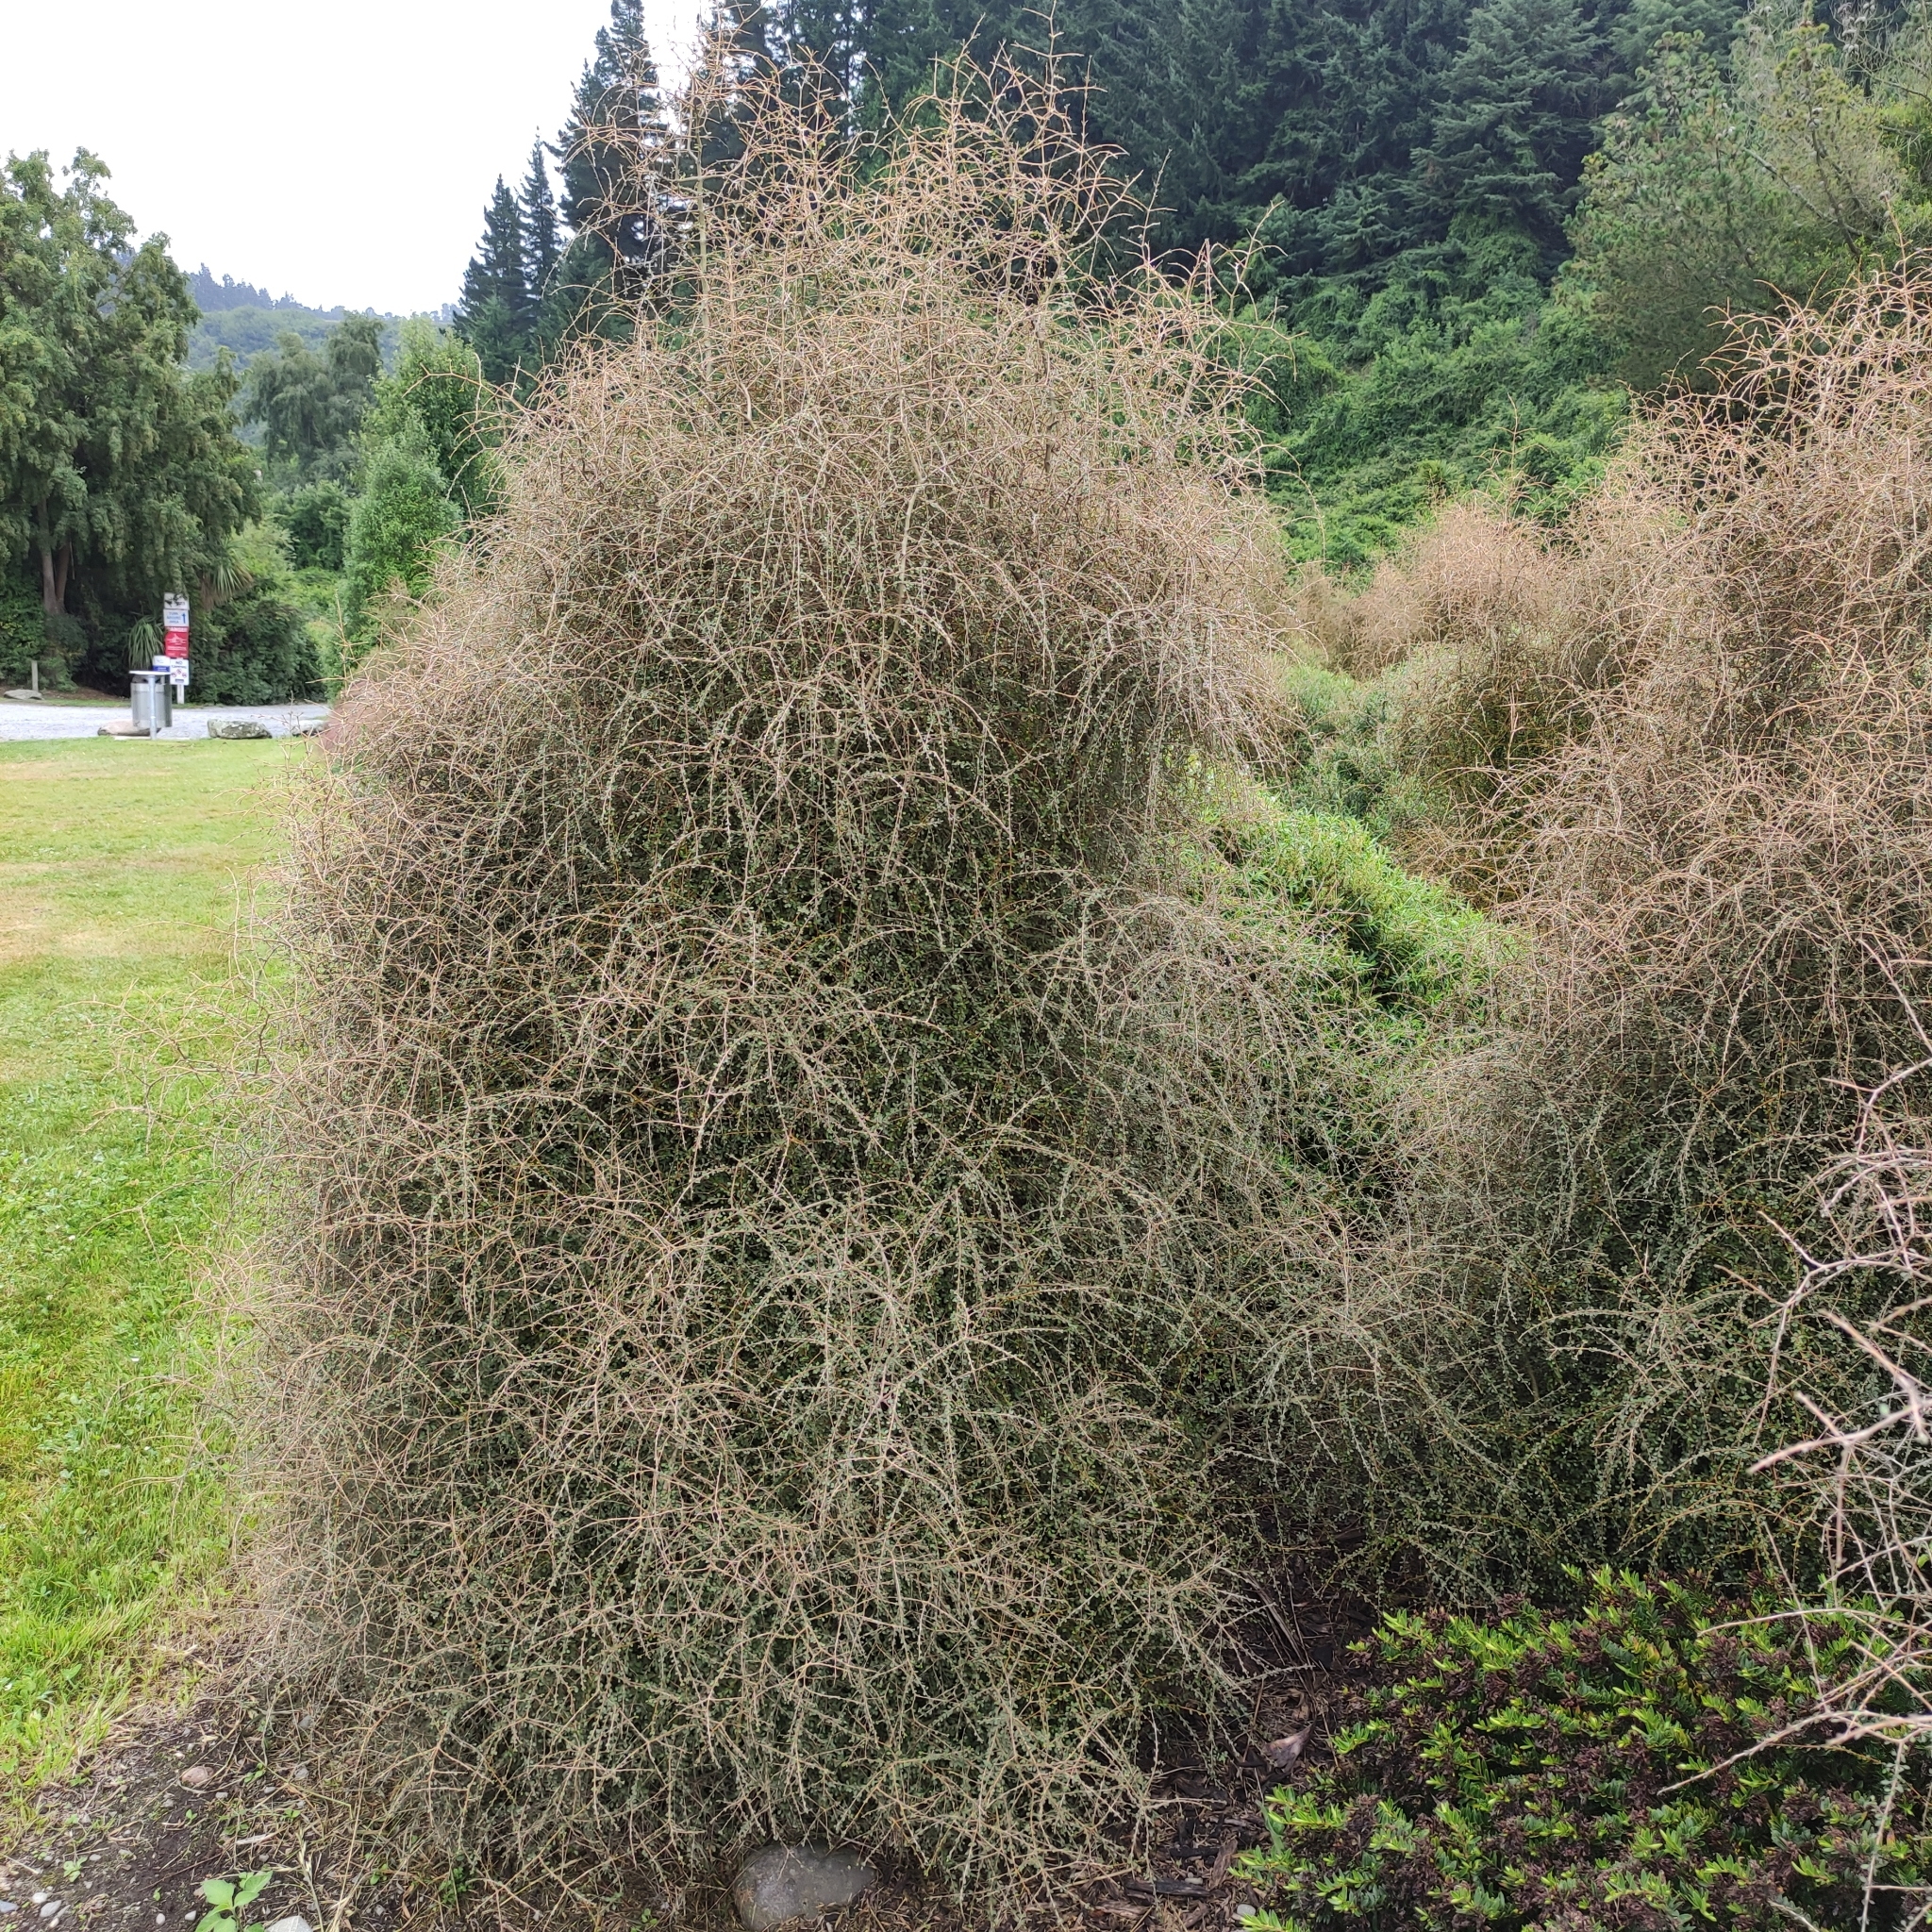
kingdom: Plantae
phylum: Tracheophyta
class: Magnoliopsida
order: Gentianales
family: Rubiaceae
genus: Coprosma
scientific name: Coprosma virescens
